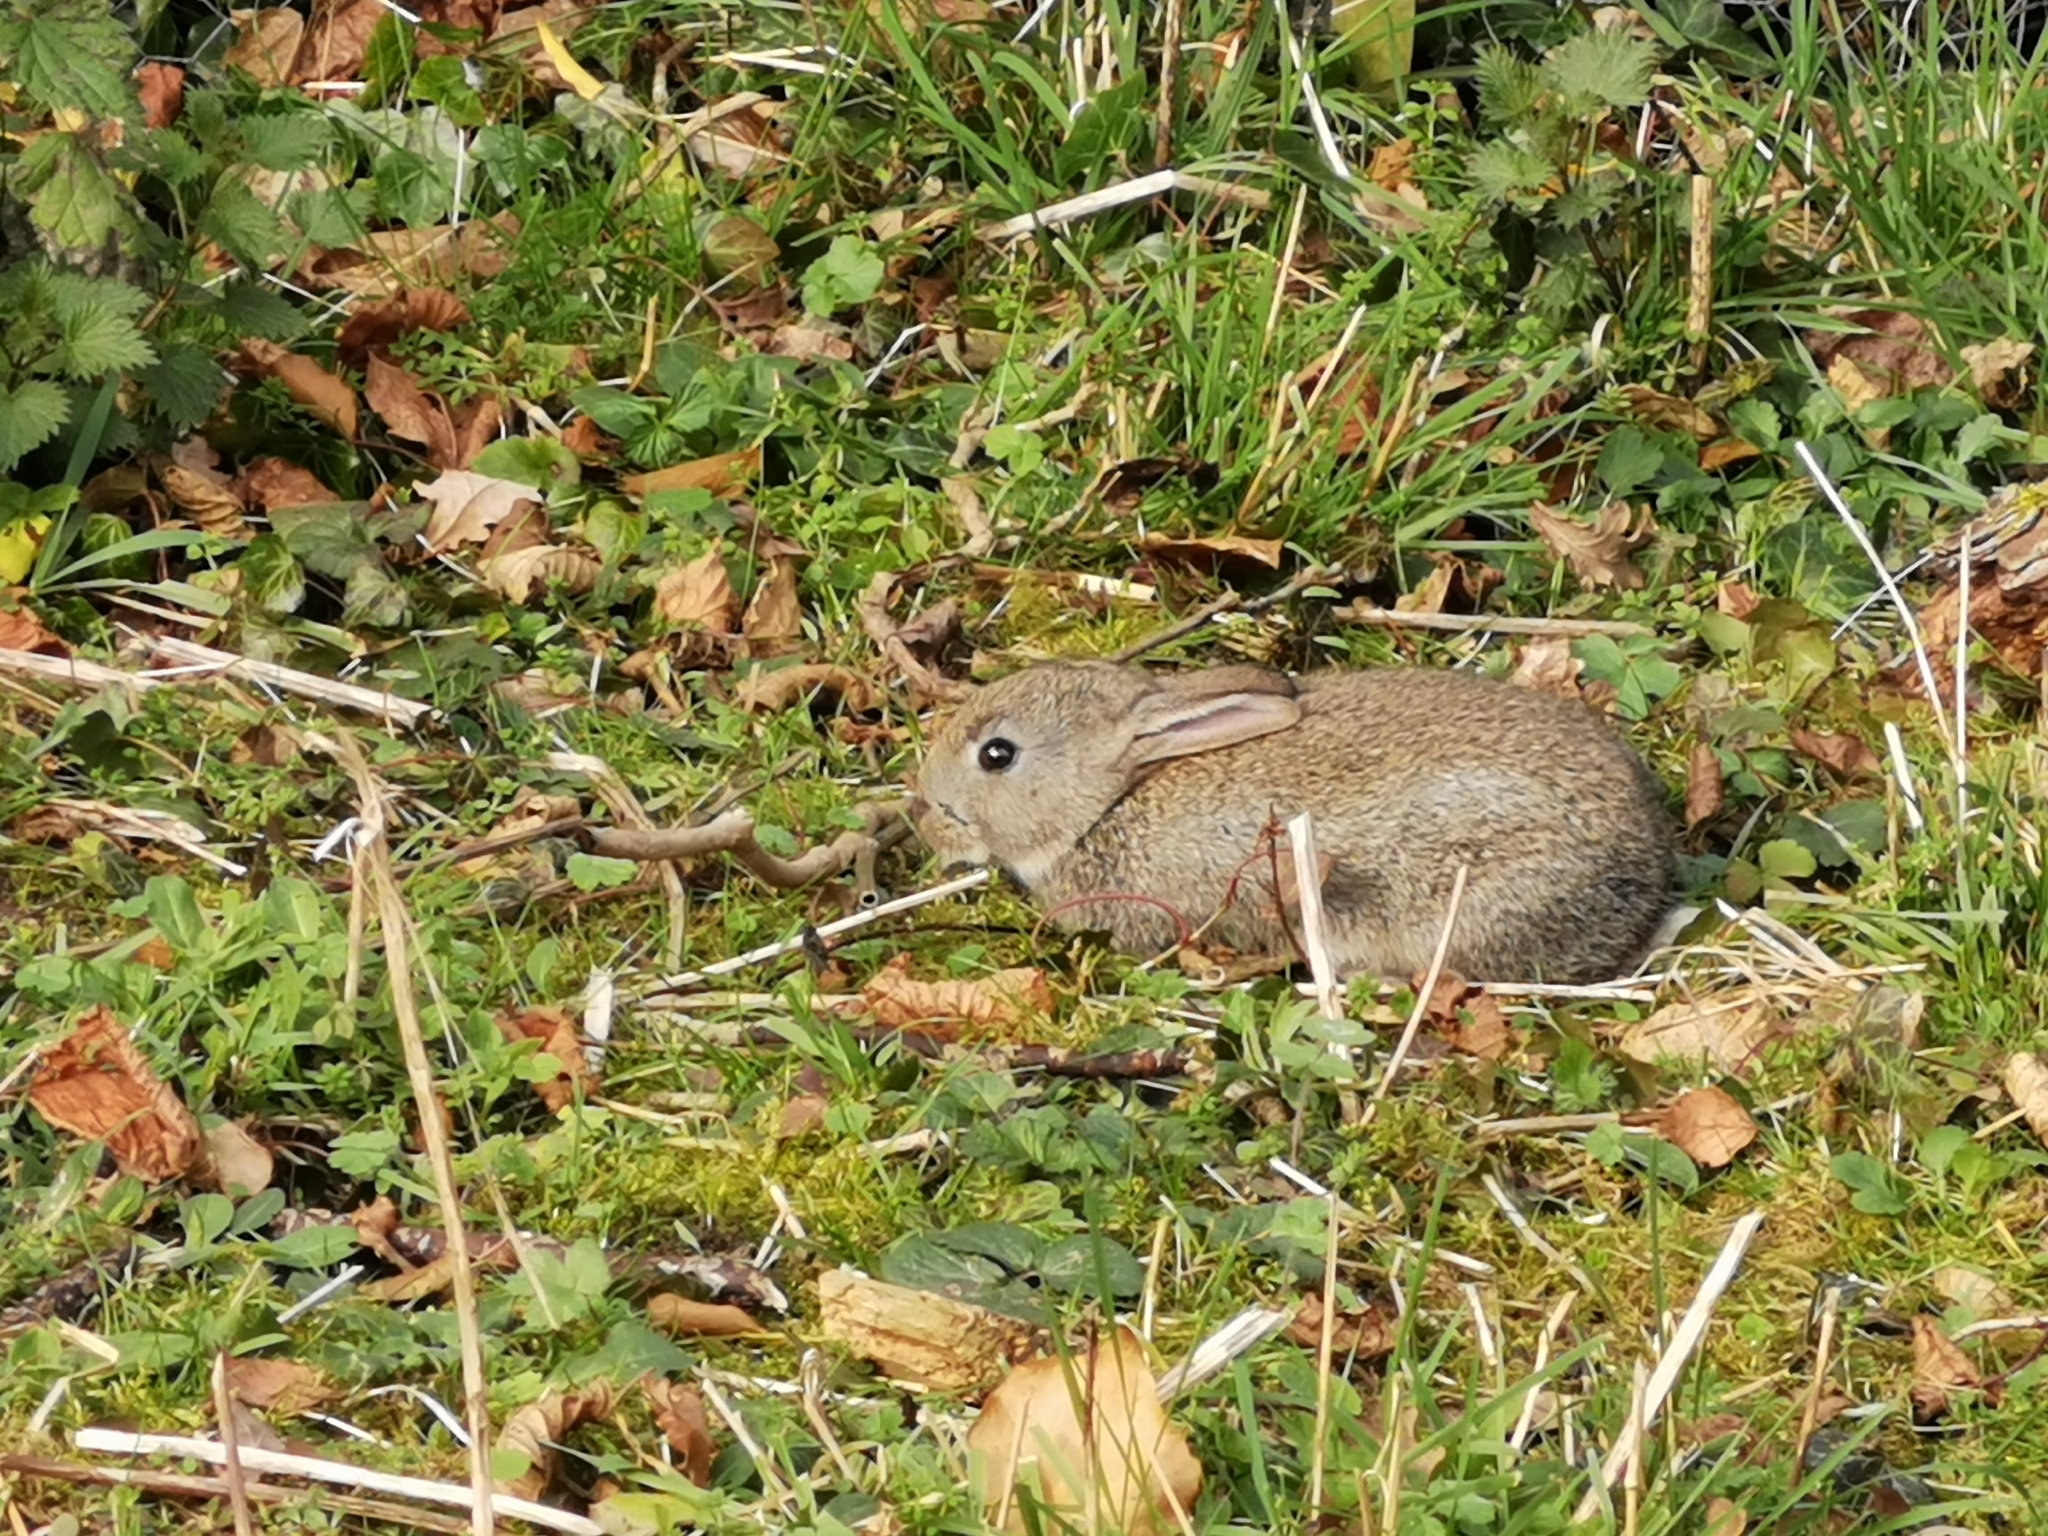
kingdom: Animalia
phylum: Chordata
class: Mammalia
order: Lagomorpha
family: Leporidae
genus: Oryctolagus
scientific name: Oryctolagus cuniculus
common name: European rabbit
